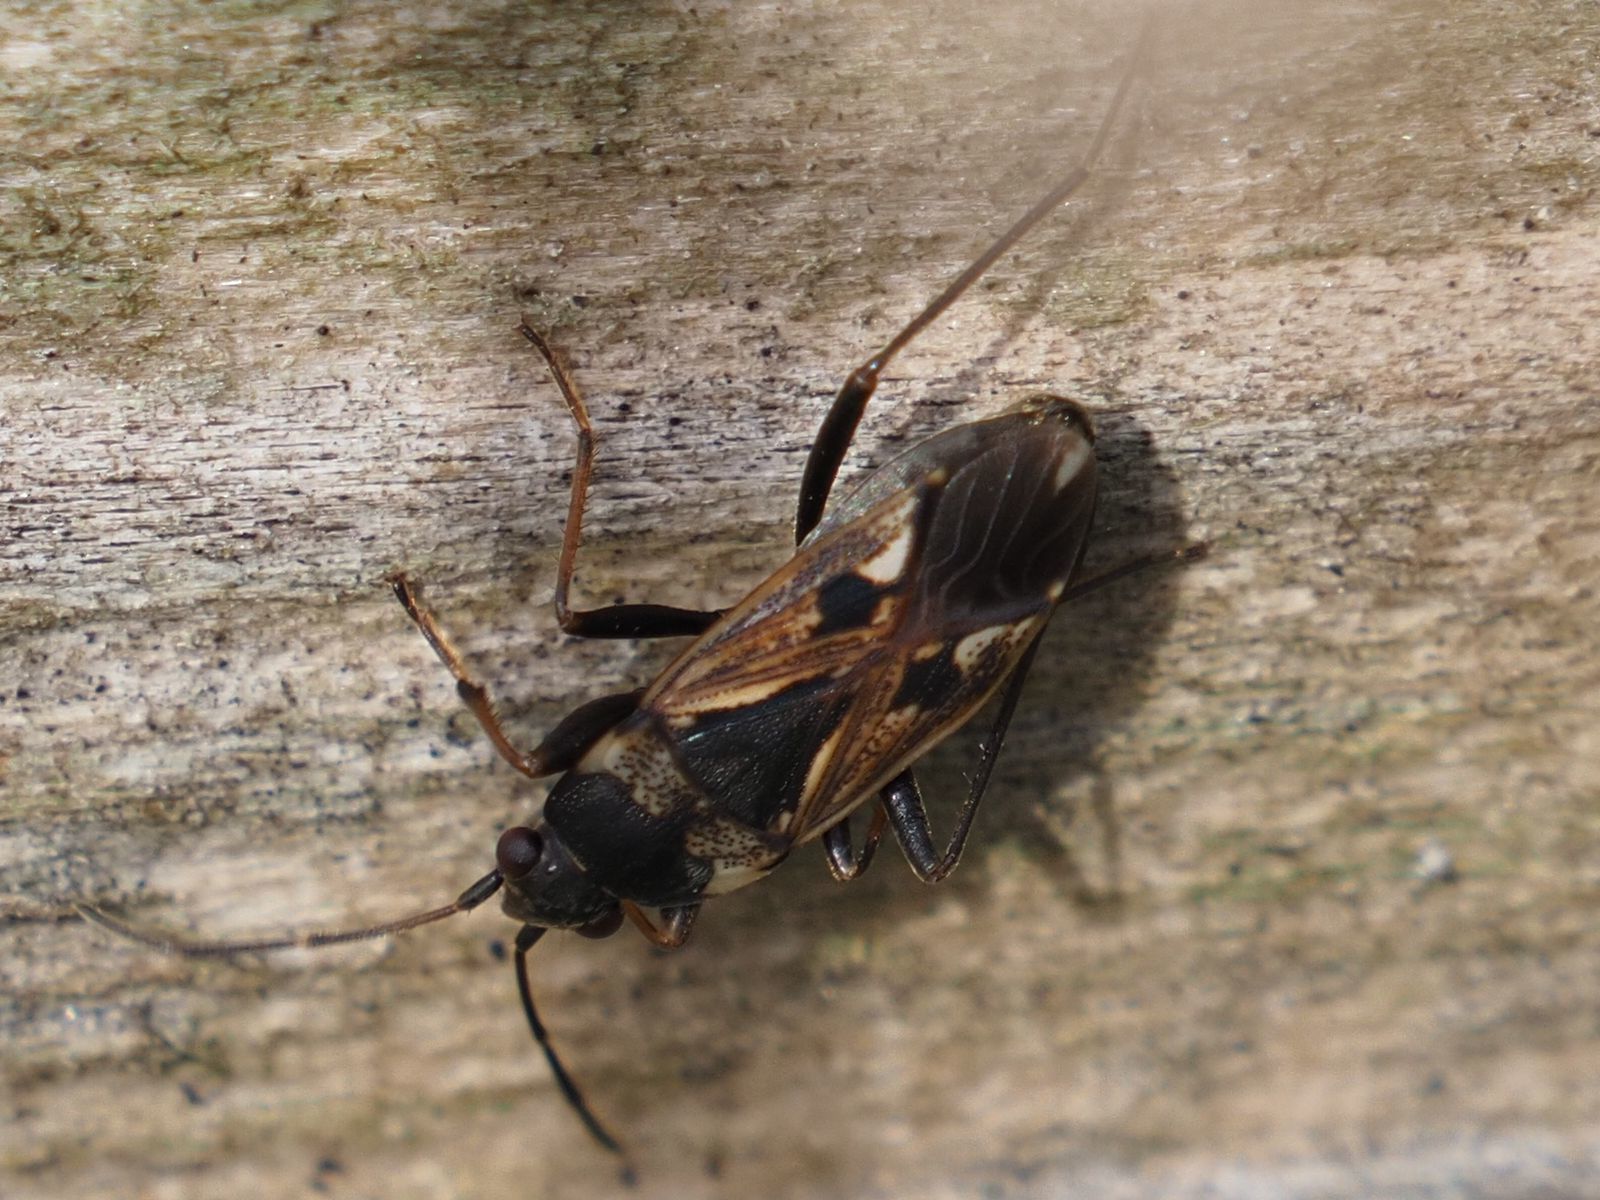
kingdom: Animalia
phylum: Arthropoda
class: Insecta
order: Hemiptera
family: Rhyparochromidae
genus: Rhyparochromus
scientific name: Rhyparochromus vulgaris
